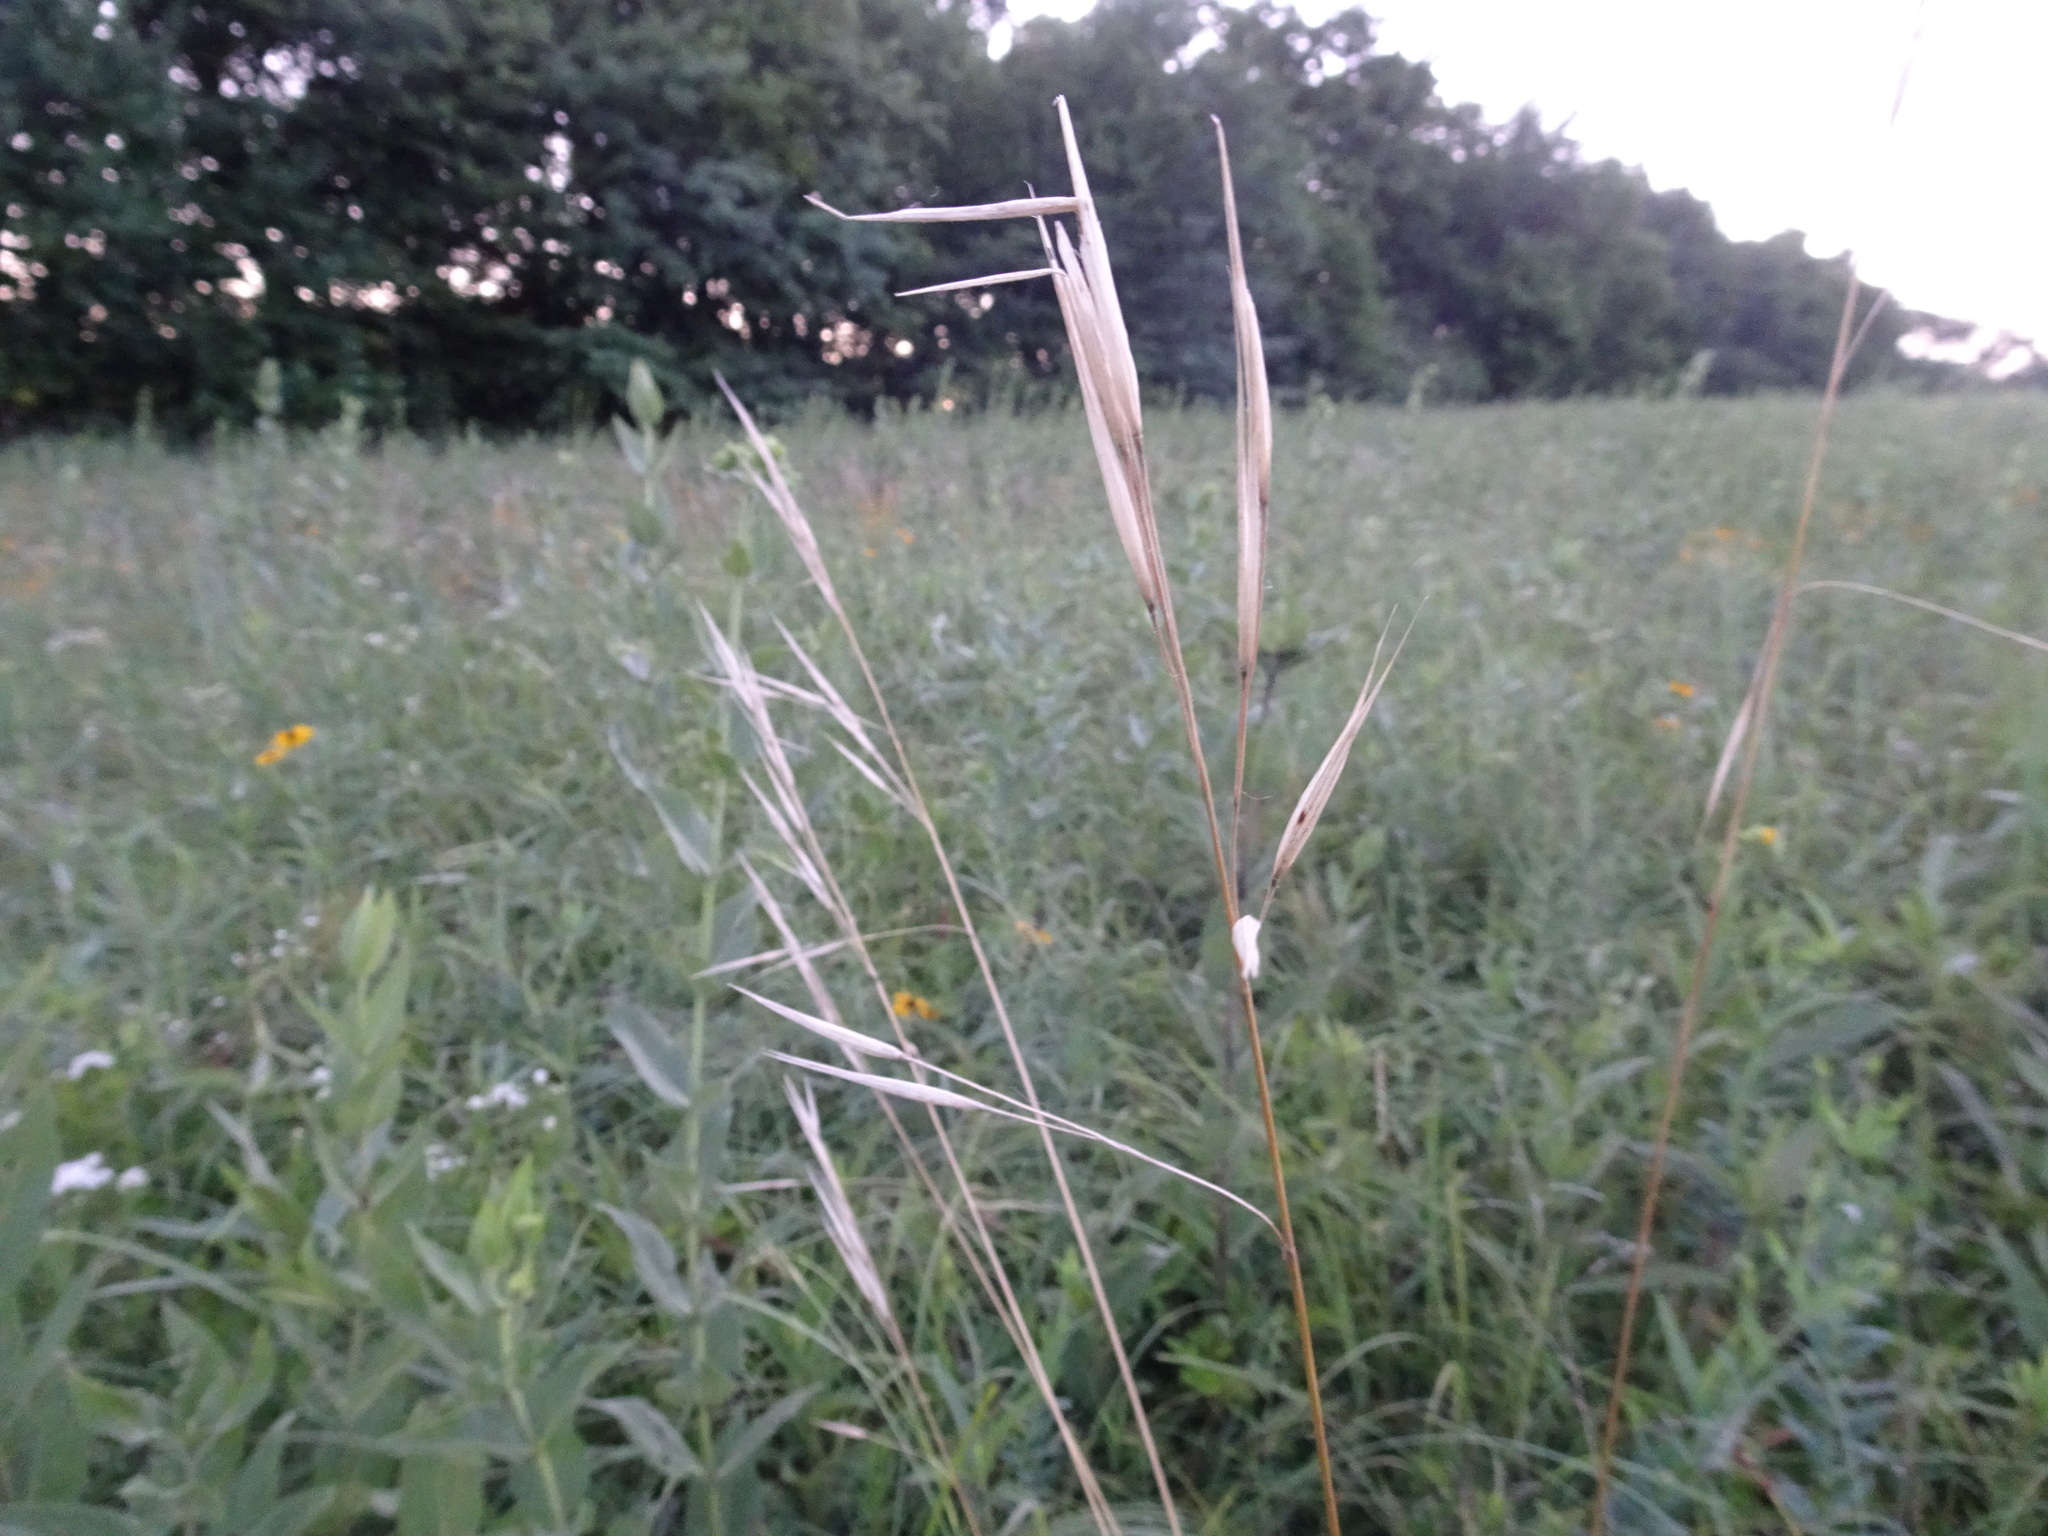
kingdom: Plantae
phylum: Tracheophyta
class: Liliopsida
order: Poales
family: Poaceae
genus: Hesperostipa
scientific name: Hesperostipa spartea
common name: Porcupine grass
